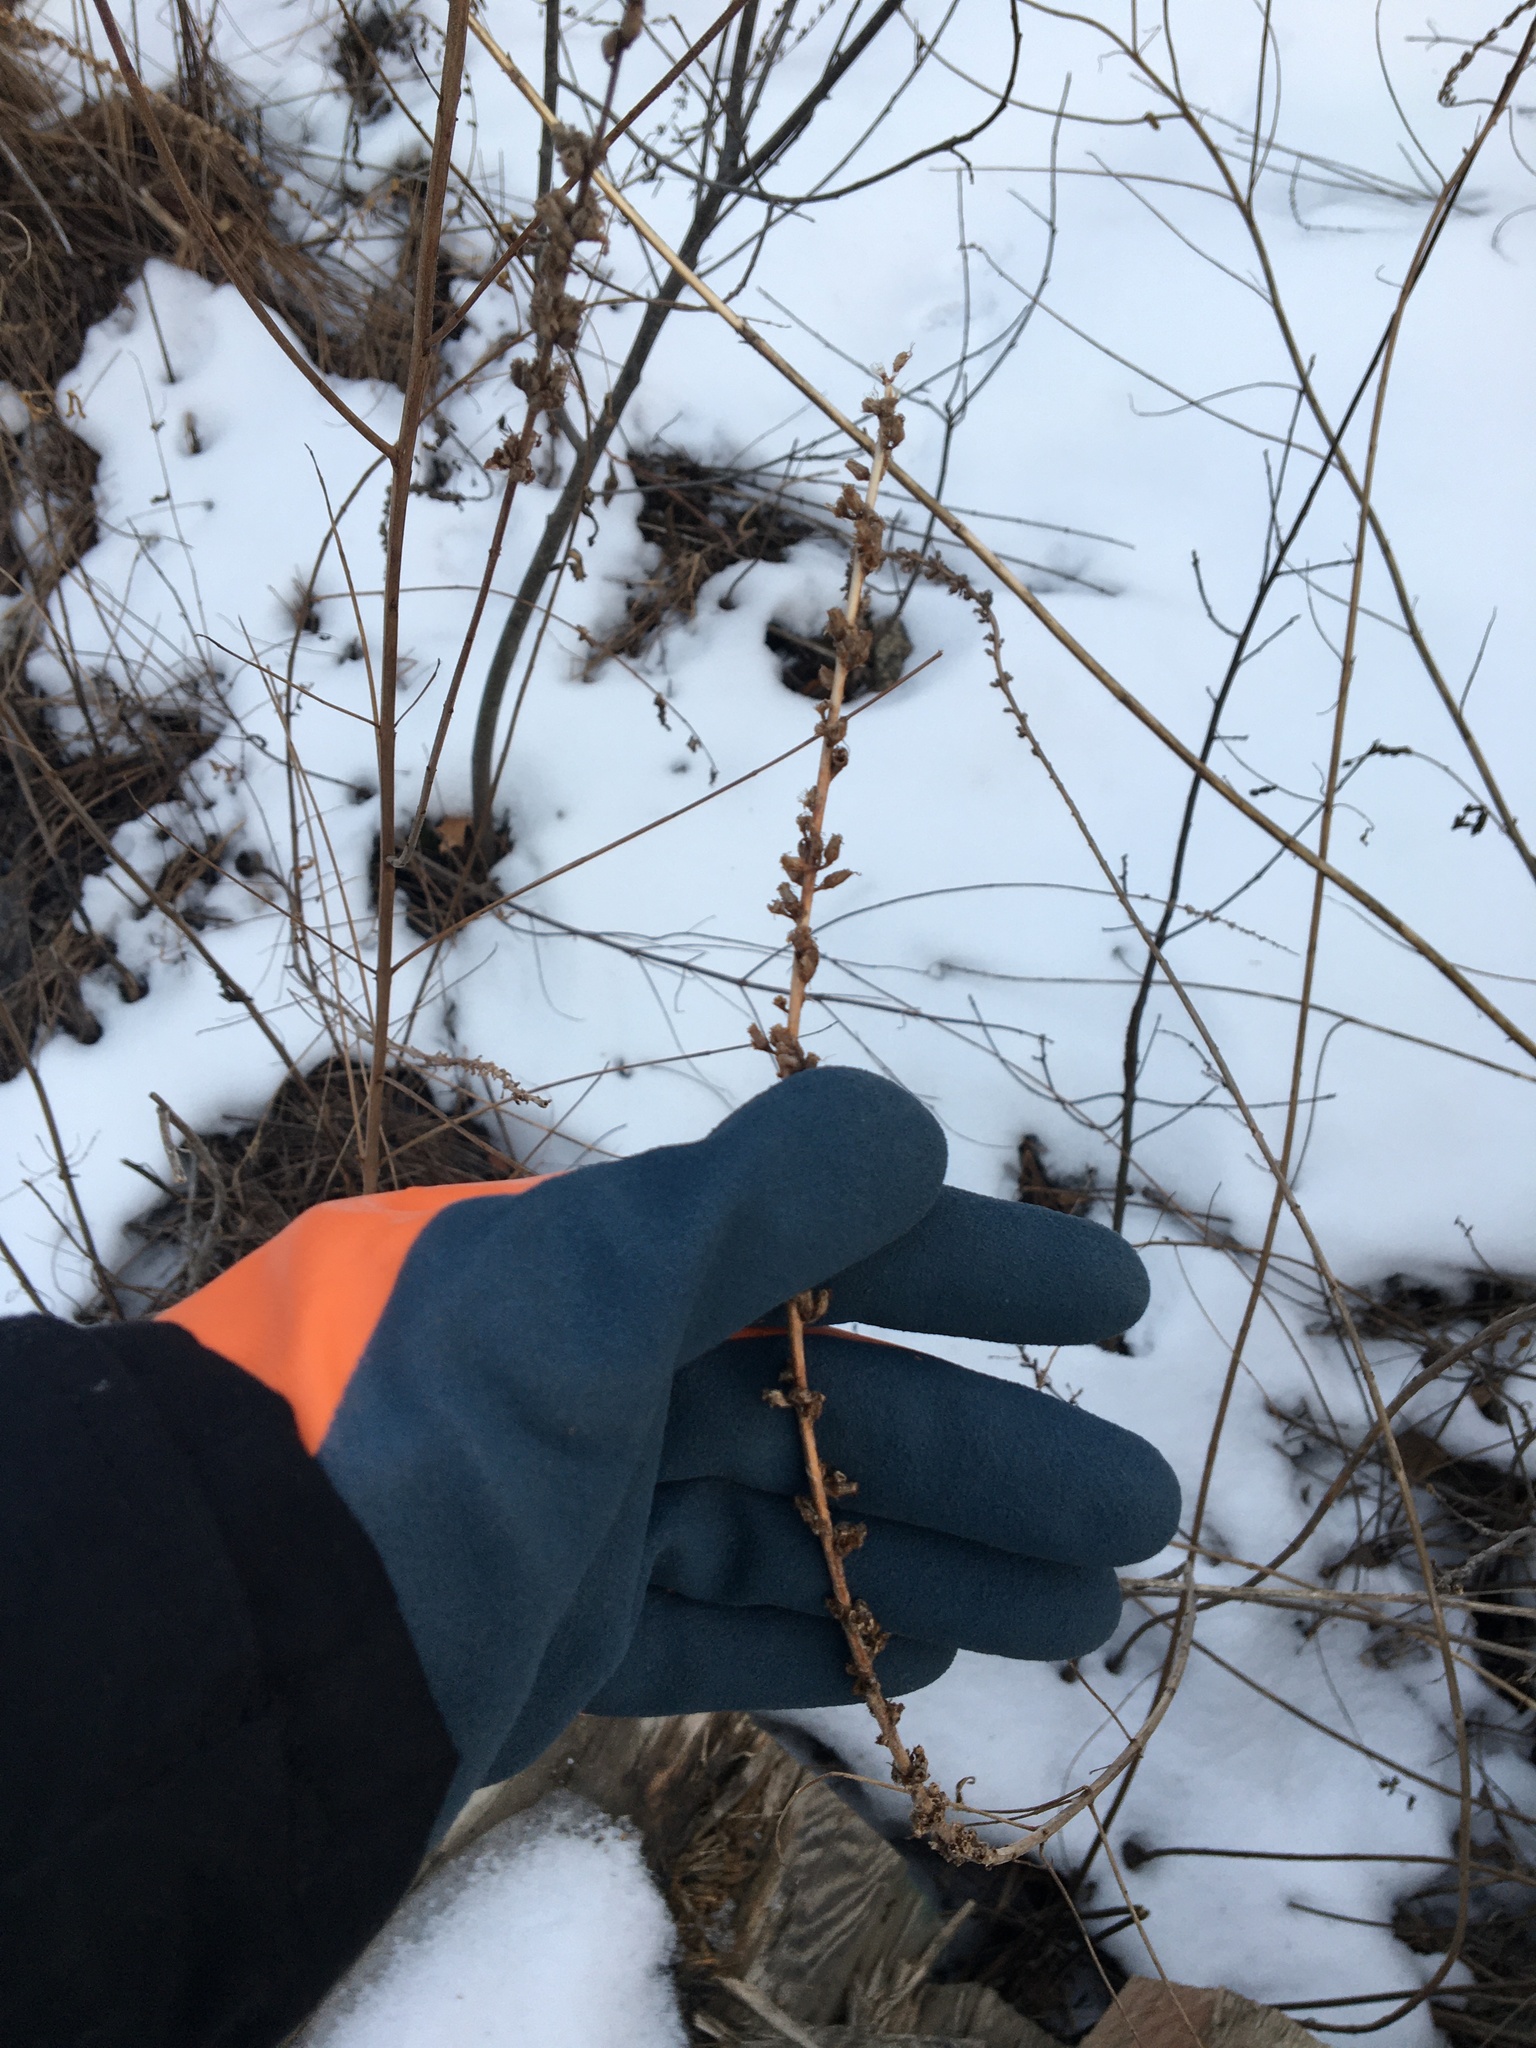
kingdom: Plantae
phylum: Tracheophyta
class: Magnoliopsida
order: Myrtales
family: Lythraceae
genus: Lythrum
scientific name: Lythrum salicaria
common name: Purple loosestrife
